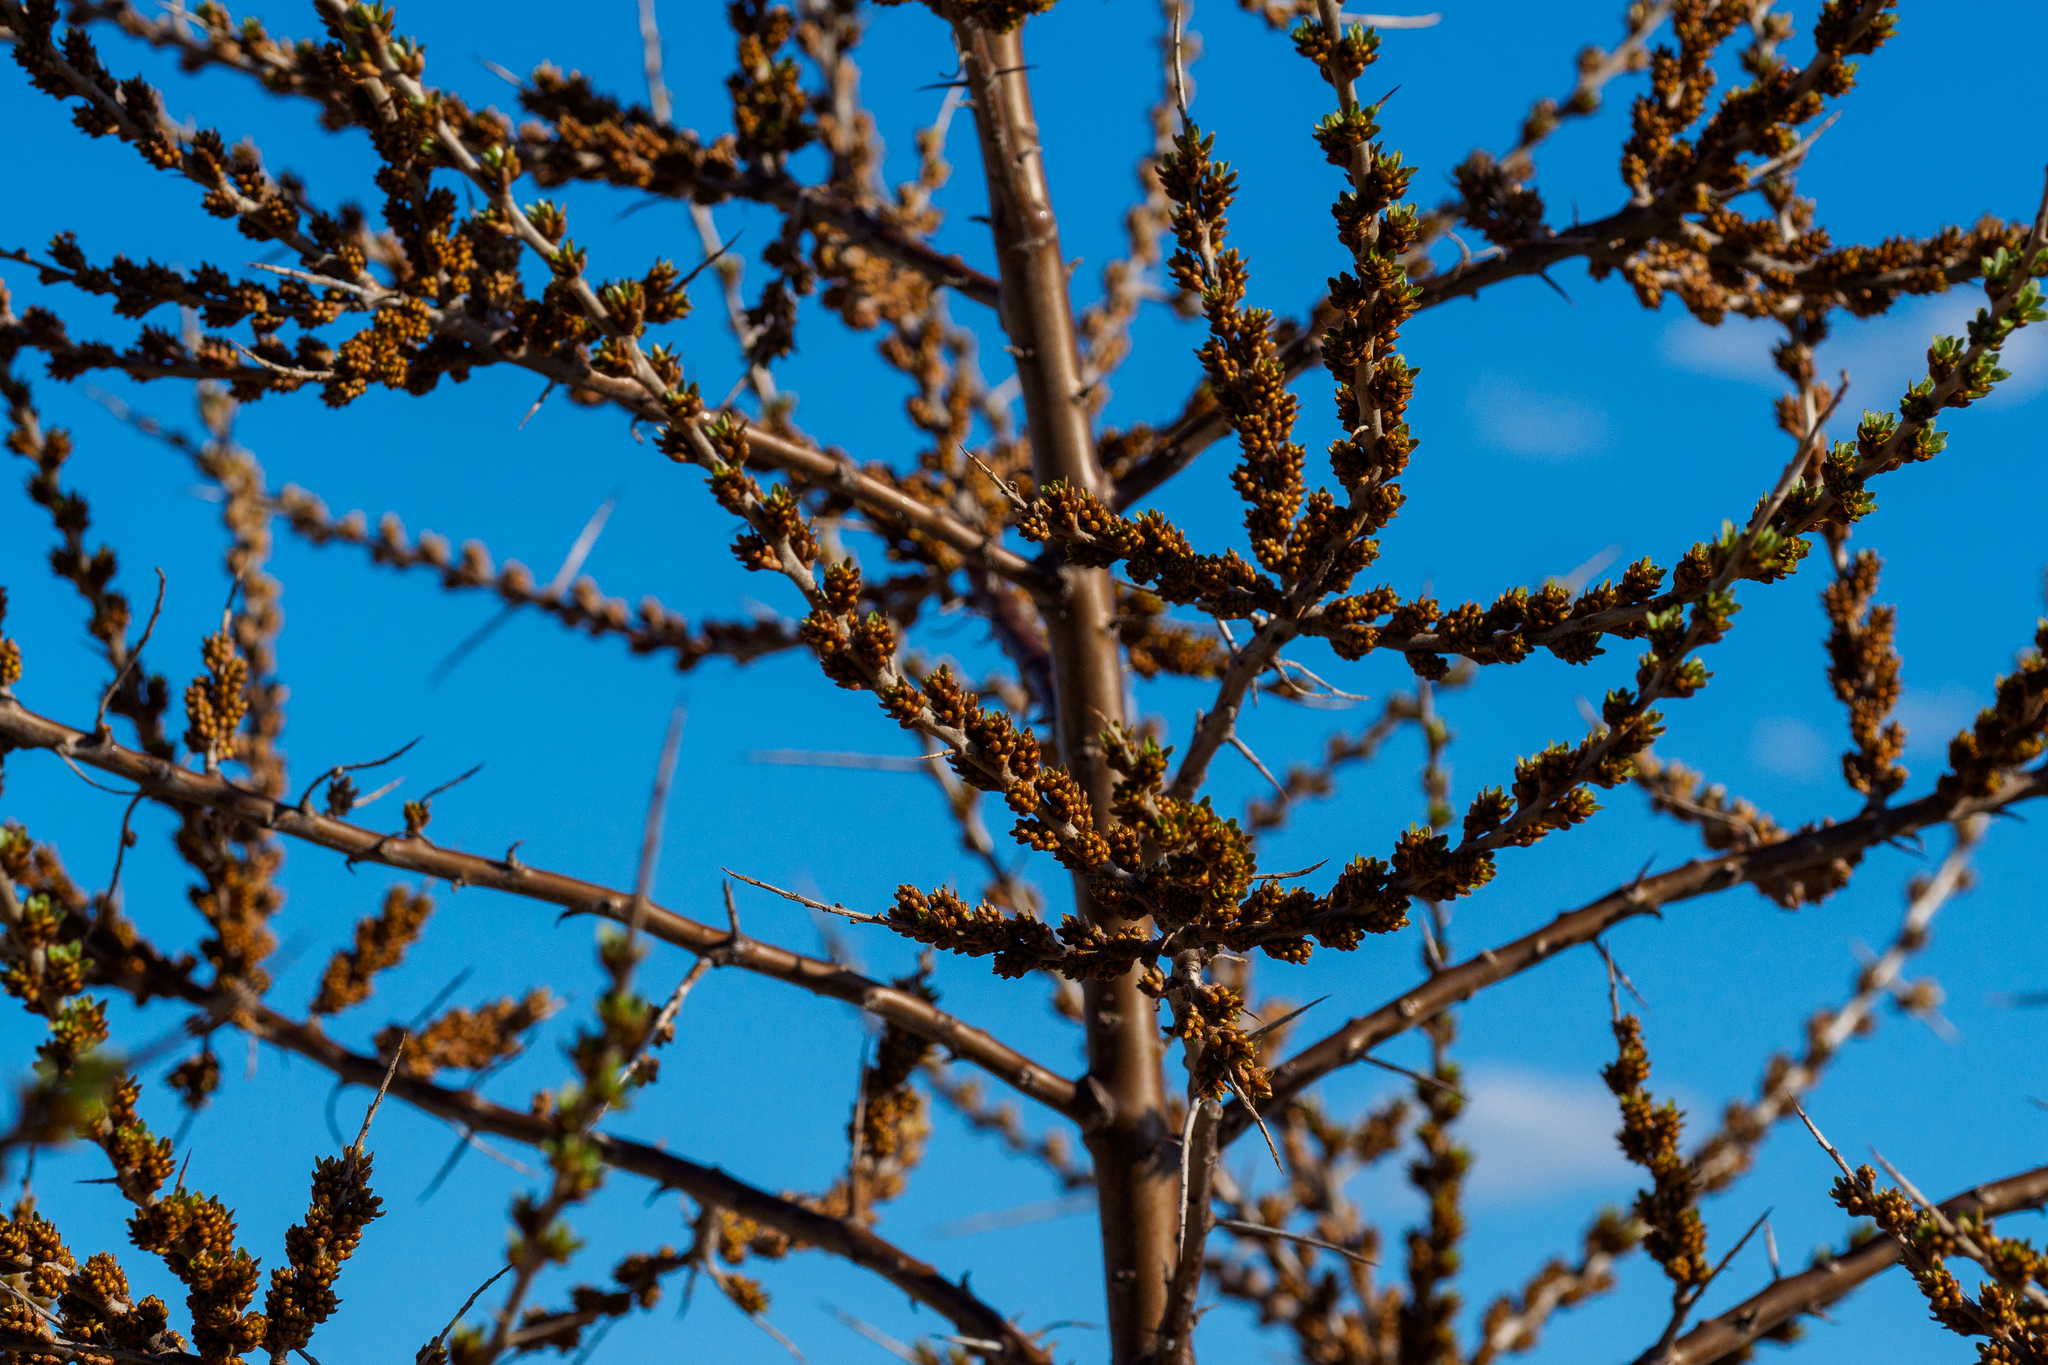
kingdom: Plantae
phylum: Tracheophyta
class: Magnoliopsida
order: Rosales
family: Elaeagnaceae
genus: Hippophae
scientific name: Hippophae rhamnoides
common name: Sea-buckthorn
